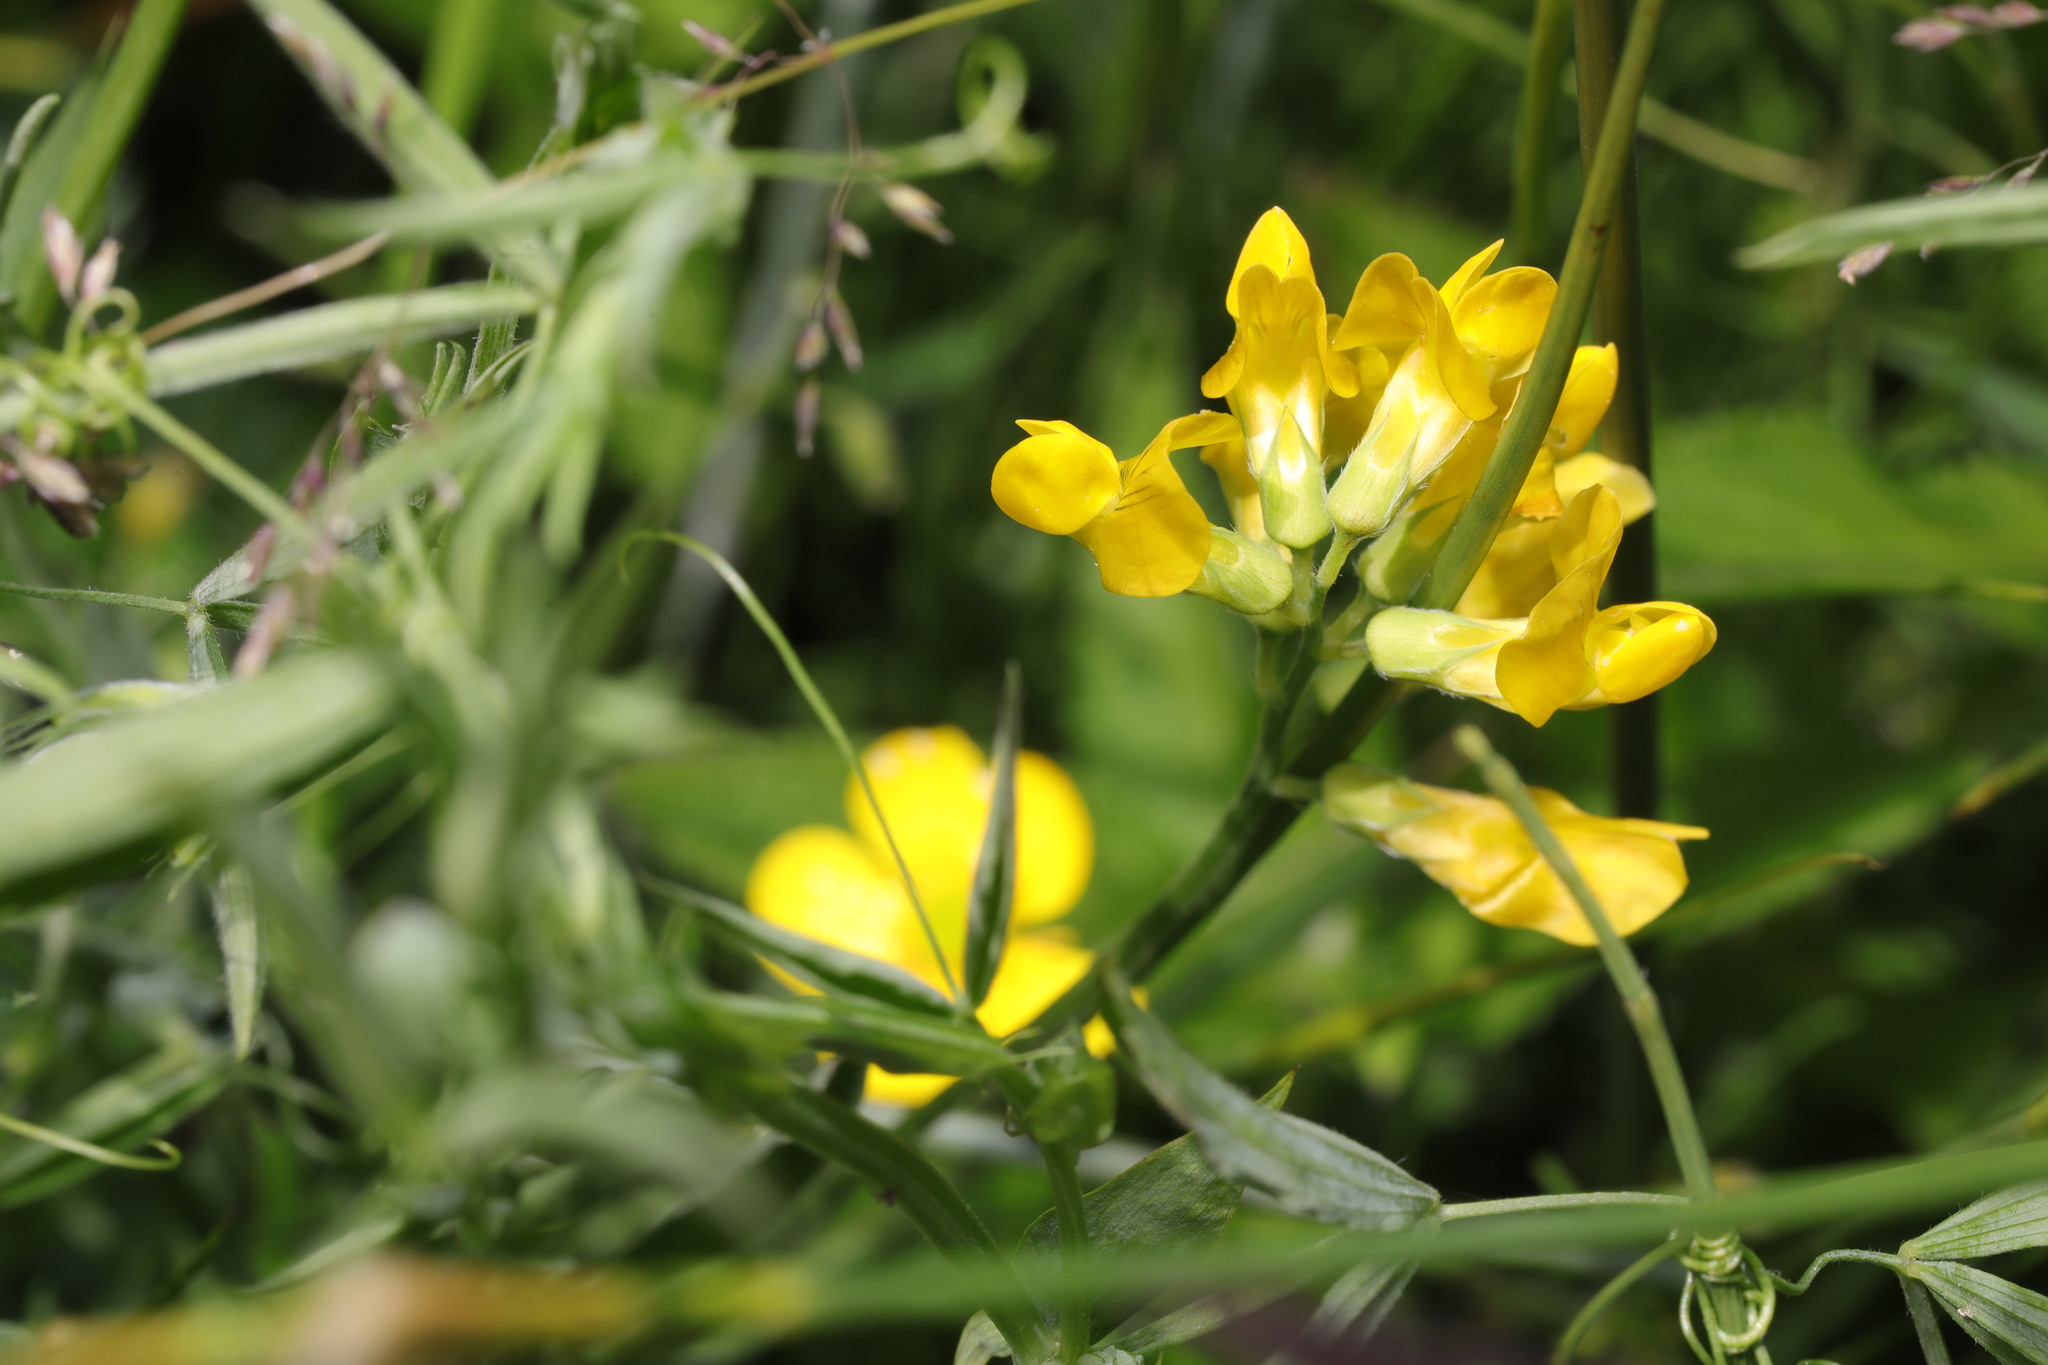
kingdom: Plantae
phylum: Tracheophyta
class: Magnoliopsida
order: Fabales
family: Fabaceae
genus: Lathyrus
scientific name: Lathyrus pratensis
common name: Meadow vetchling
